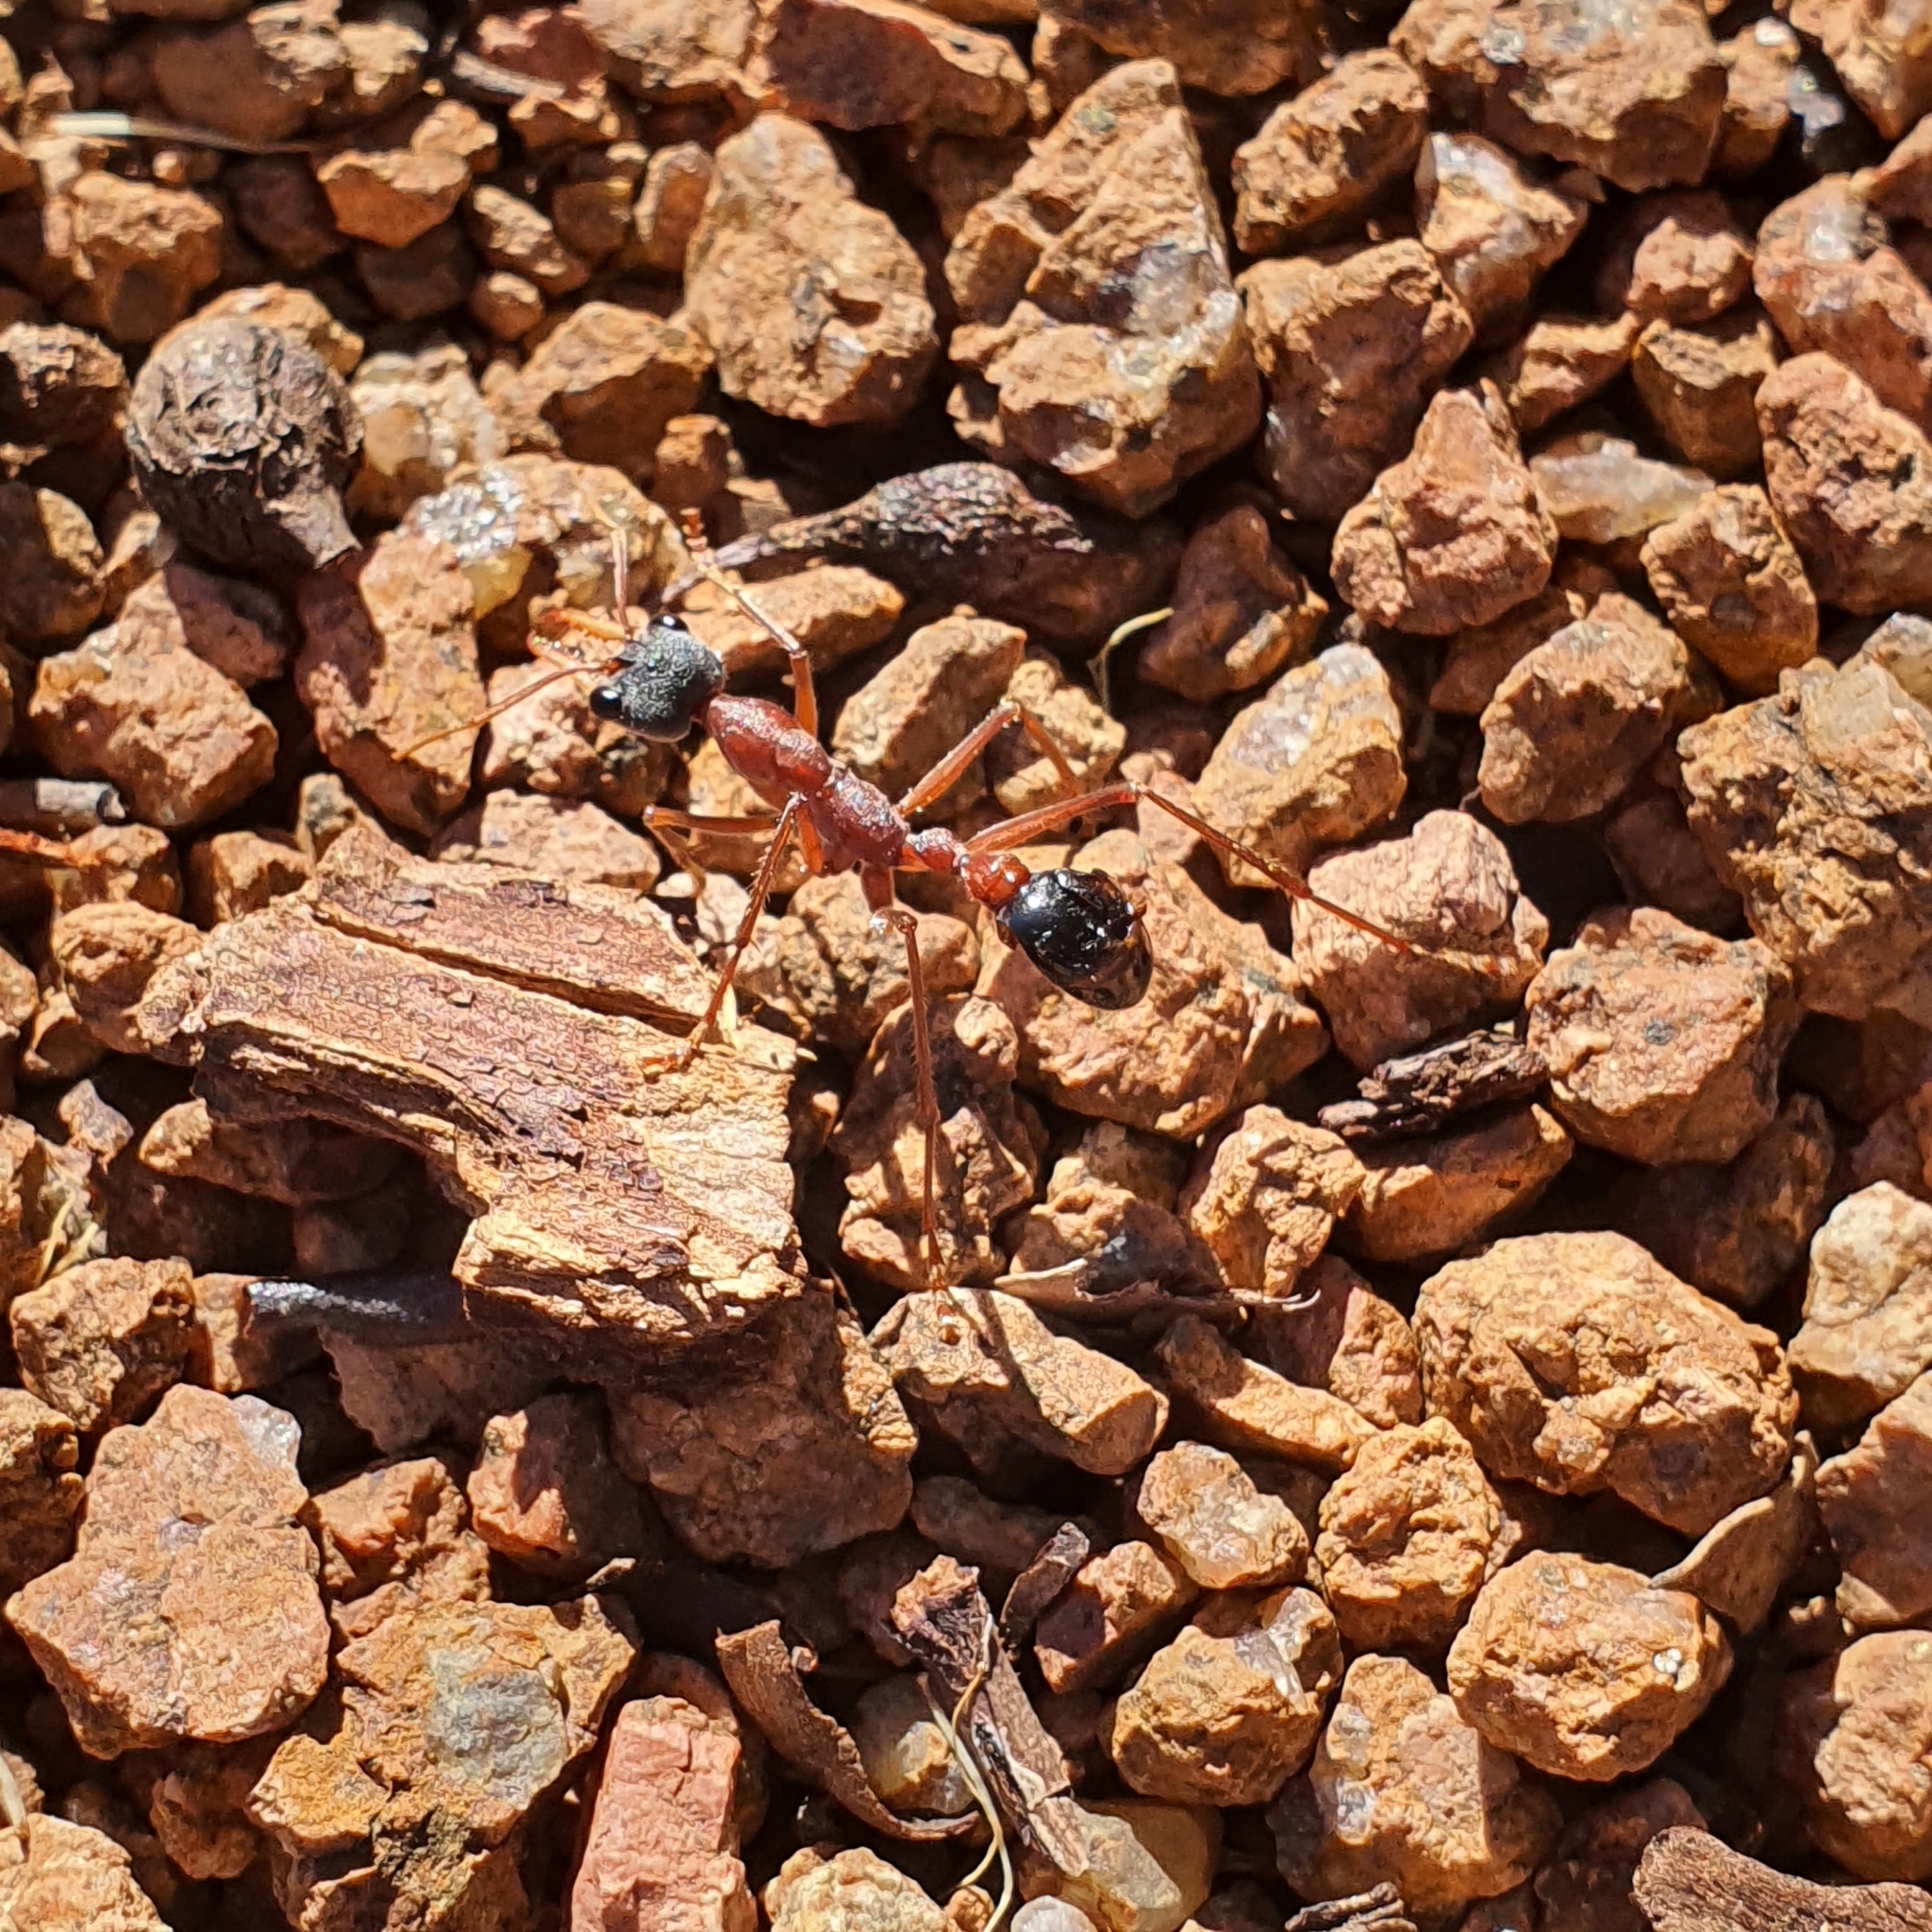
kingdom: Animalia
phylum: Arthropoda
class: Insecta
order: Hymenoptera
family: Formicidae
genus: Myrmecia
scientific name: Myrmecia nigriceps
